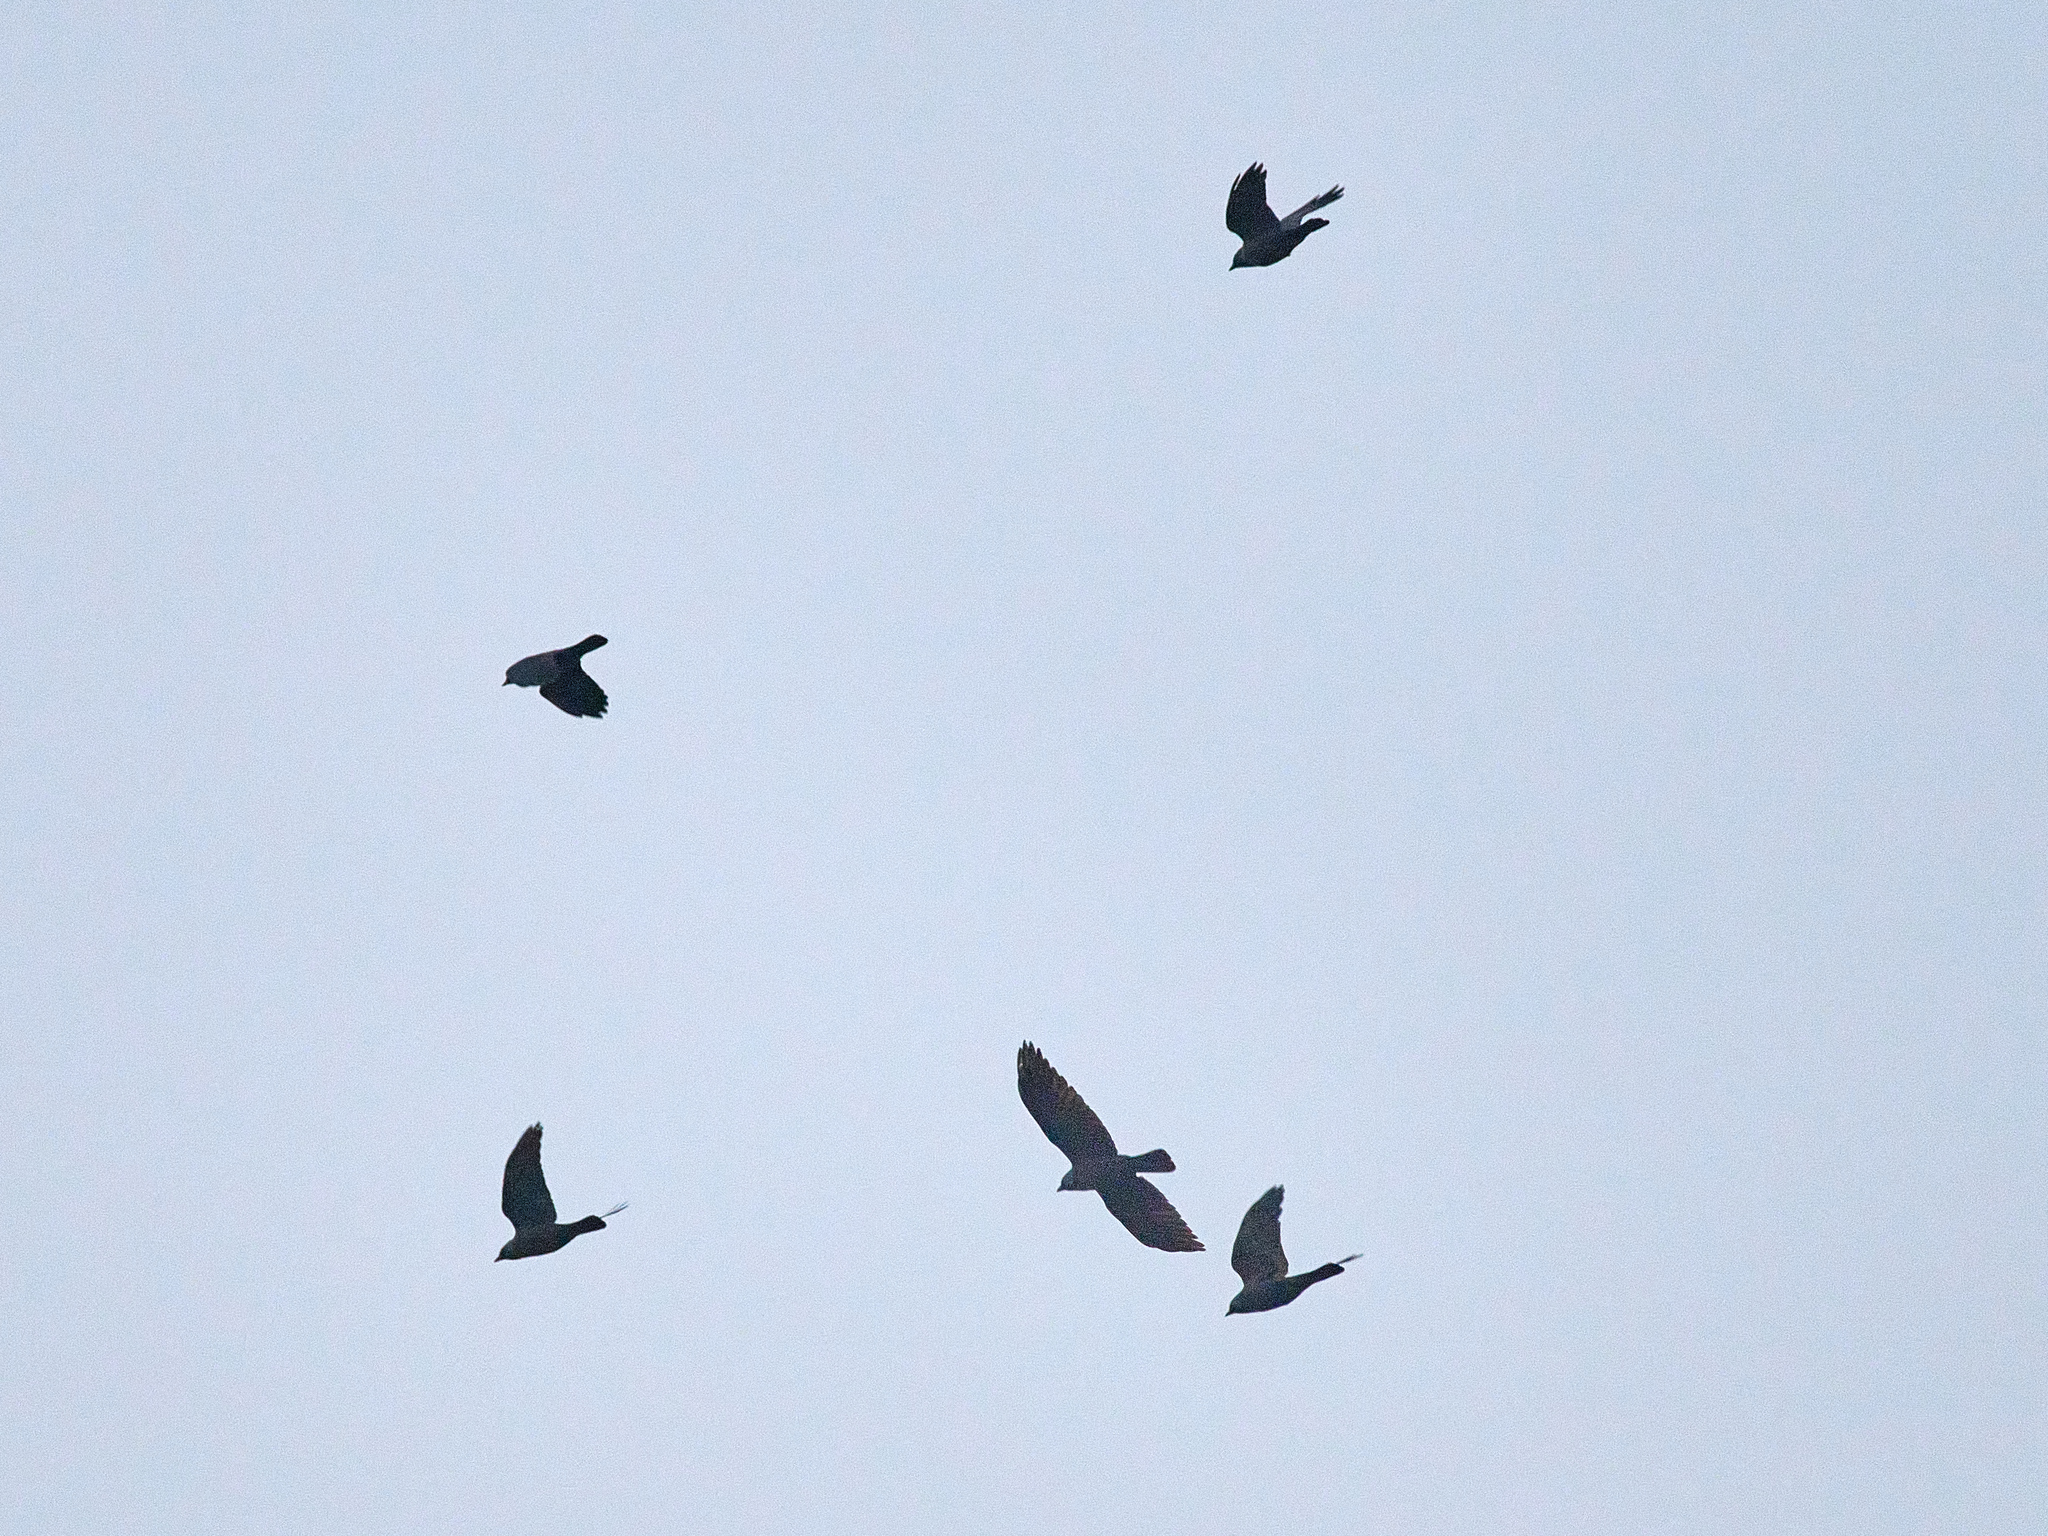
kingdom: Animalia
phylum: Chordata
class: Aves
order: Passeriformes
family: Corvidae
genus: Coloeus
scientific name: Coloeus monedula
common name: Western jackdaw
